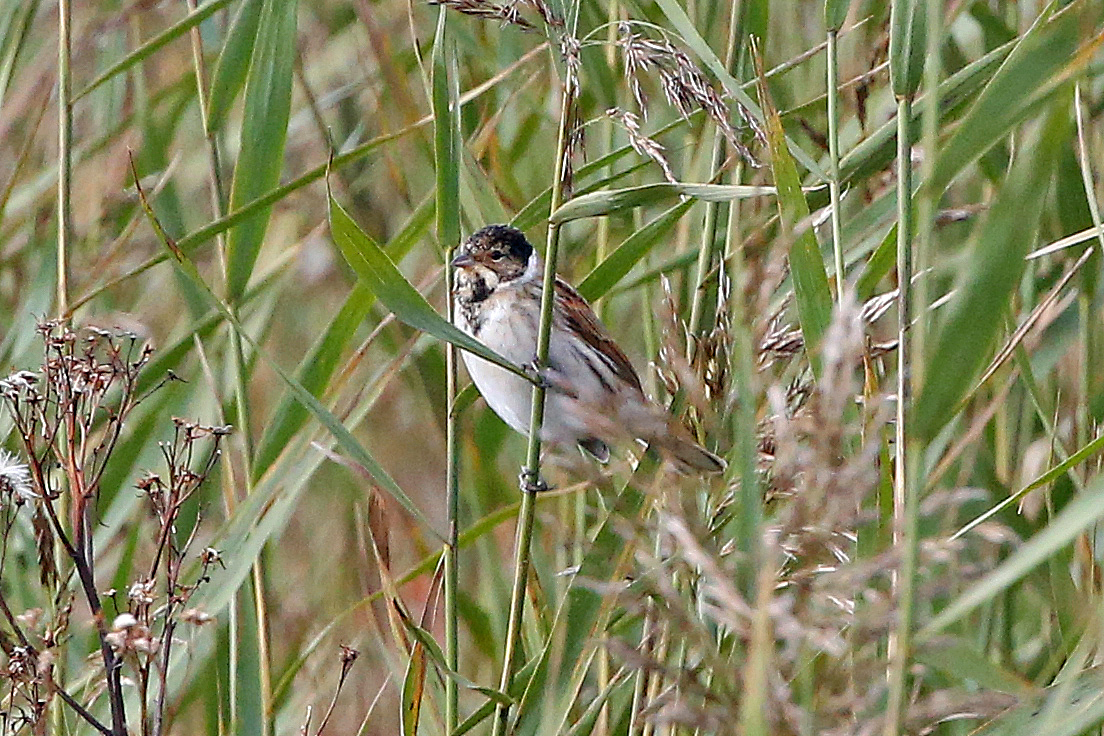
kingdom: Animalia
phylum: Chordata
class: Aves
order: Passeriformes
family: Emberizidae
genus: Emberiza
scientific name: Emberiza schoeniclus
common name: Reed bunting
